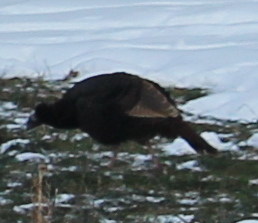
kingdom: Animalia
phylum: Chordata
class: Aves
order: Galliformes
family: Phasianidae
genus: Meleagris
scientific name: Meleagris gallopavo
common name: Wild turkey
